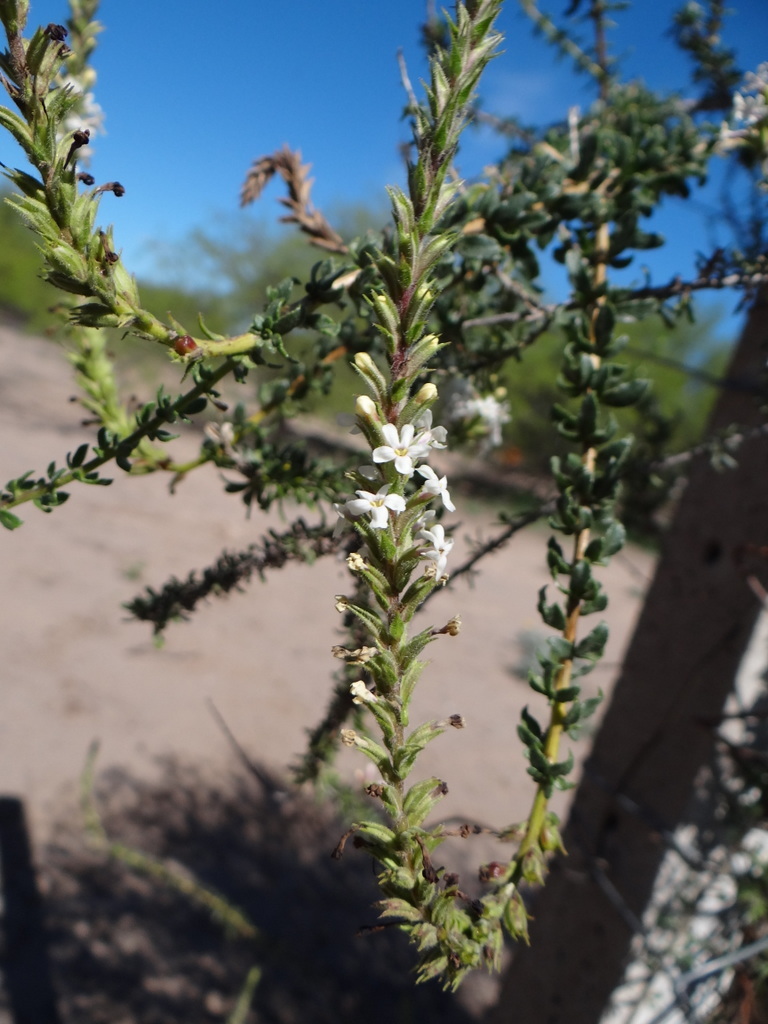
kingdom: Plantae
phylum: Tracheophyta
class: Magnoliopsida
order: Lamiales
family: Verbenaceae
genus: Mulguraea
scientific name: Mulguraea aspera
